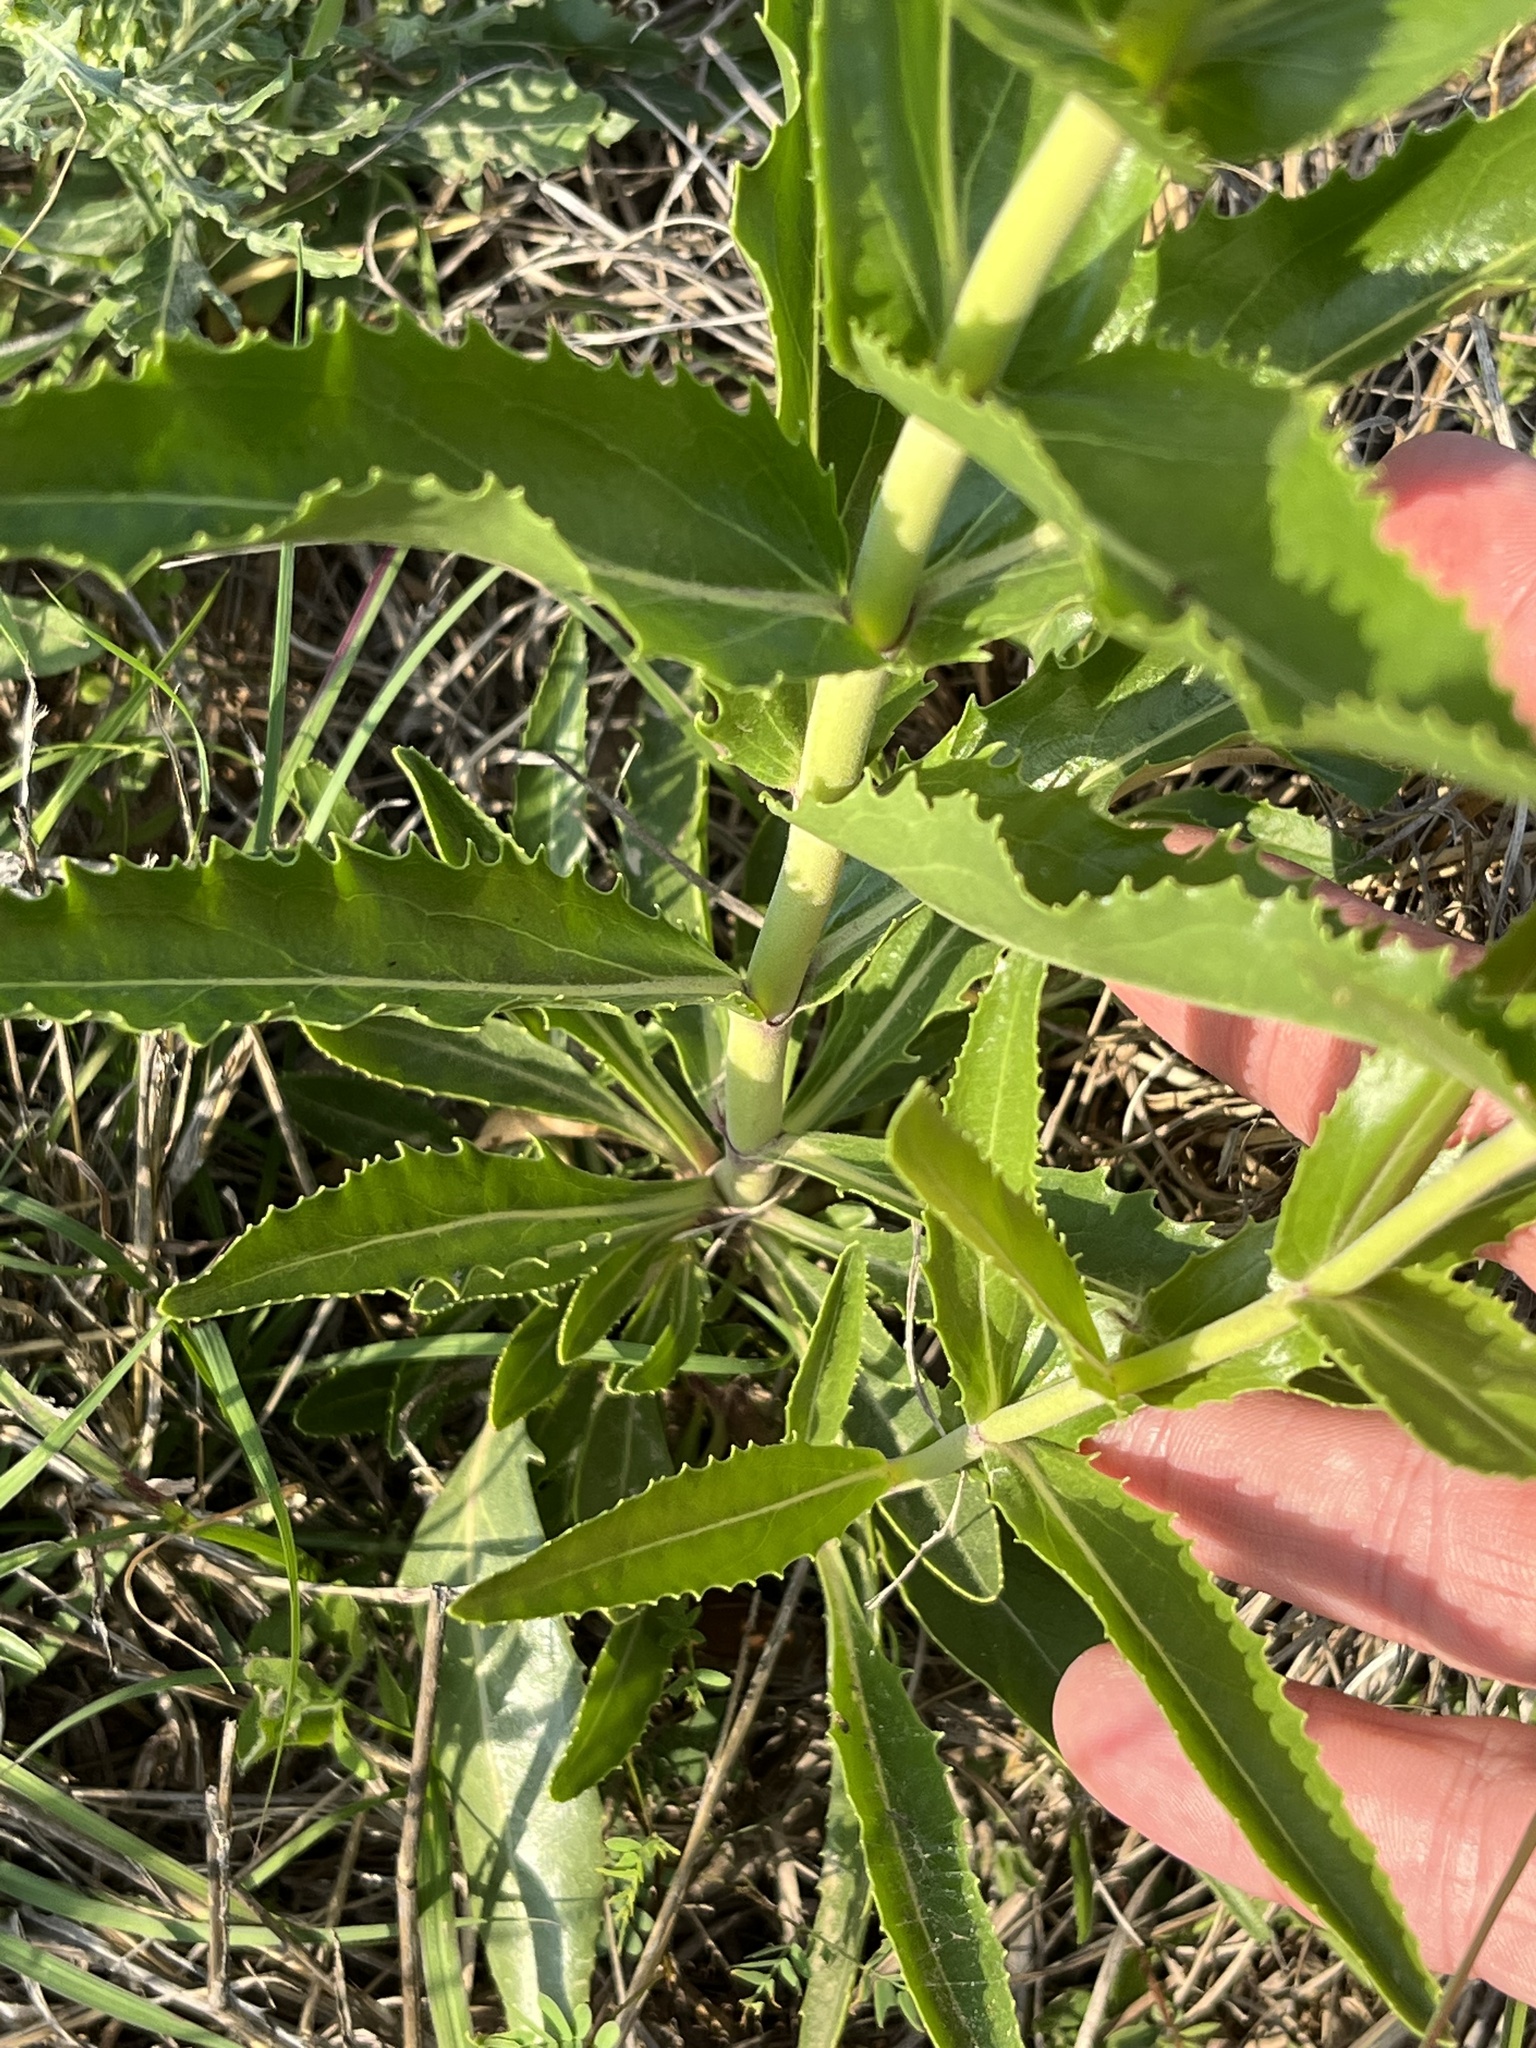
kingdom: Plantae
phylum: Tracheophyta
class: Magnoliopsida
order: Lamiales
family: Plantaginaceae
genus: Penstemon
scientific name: Penstemon cobaea
